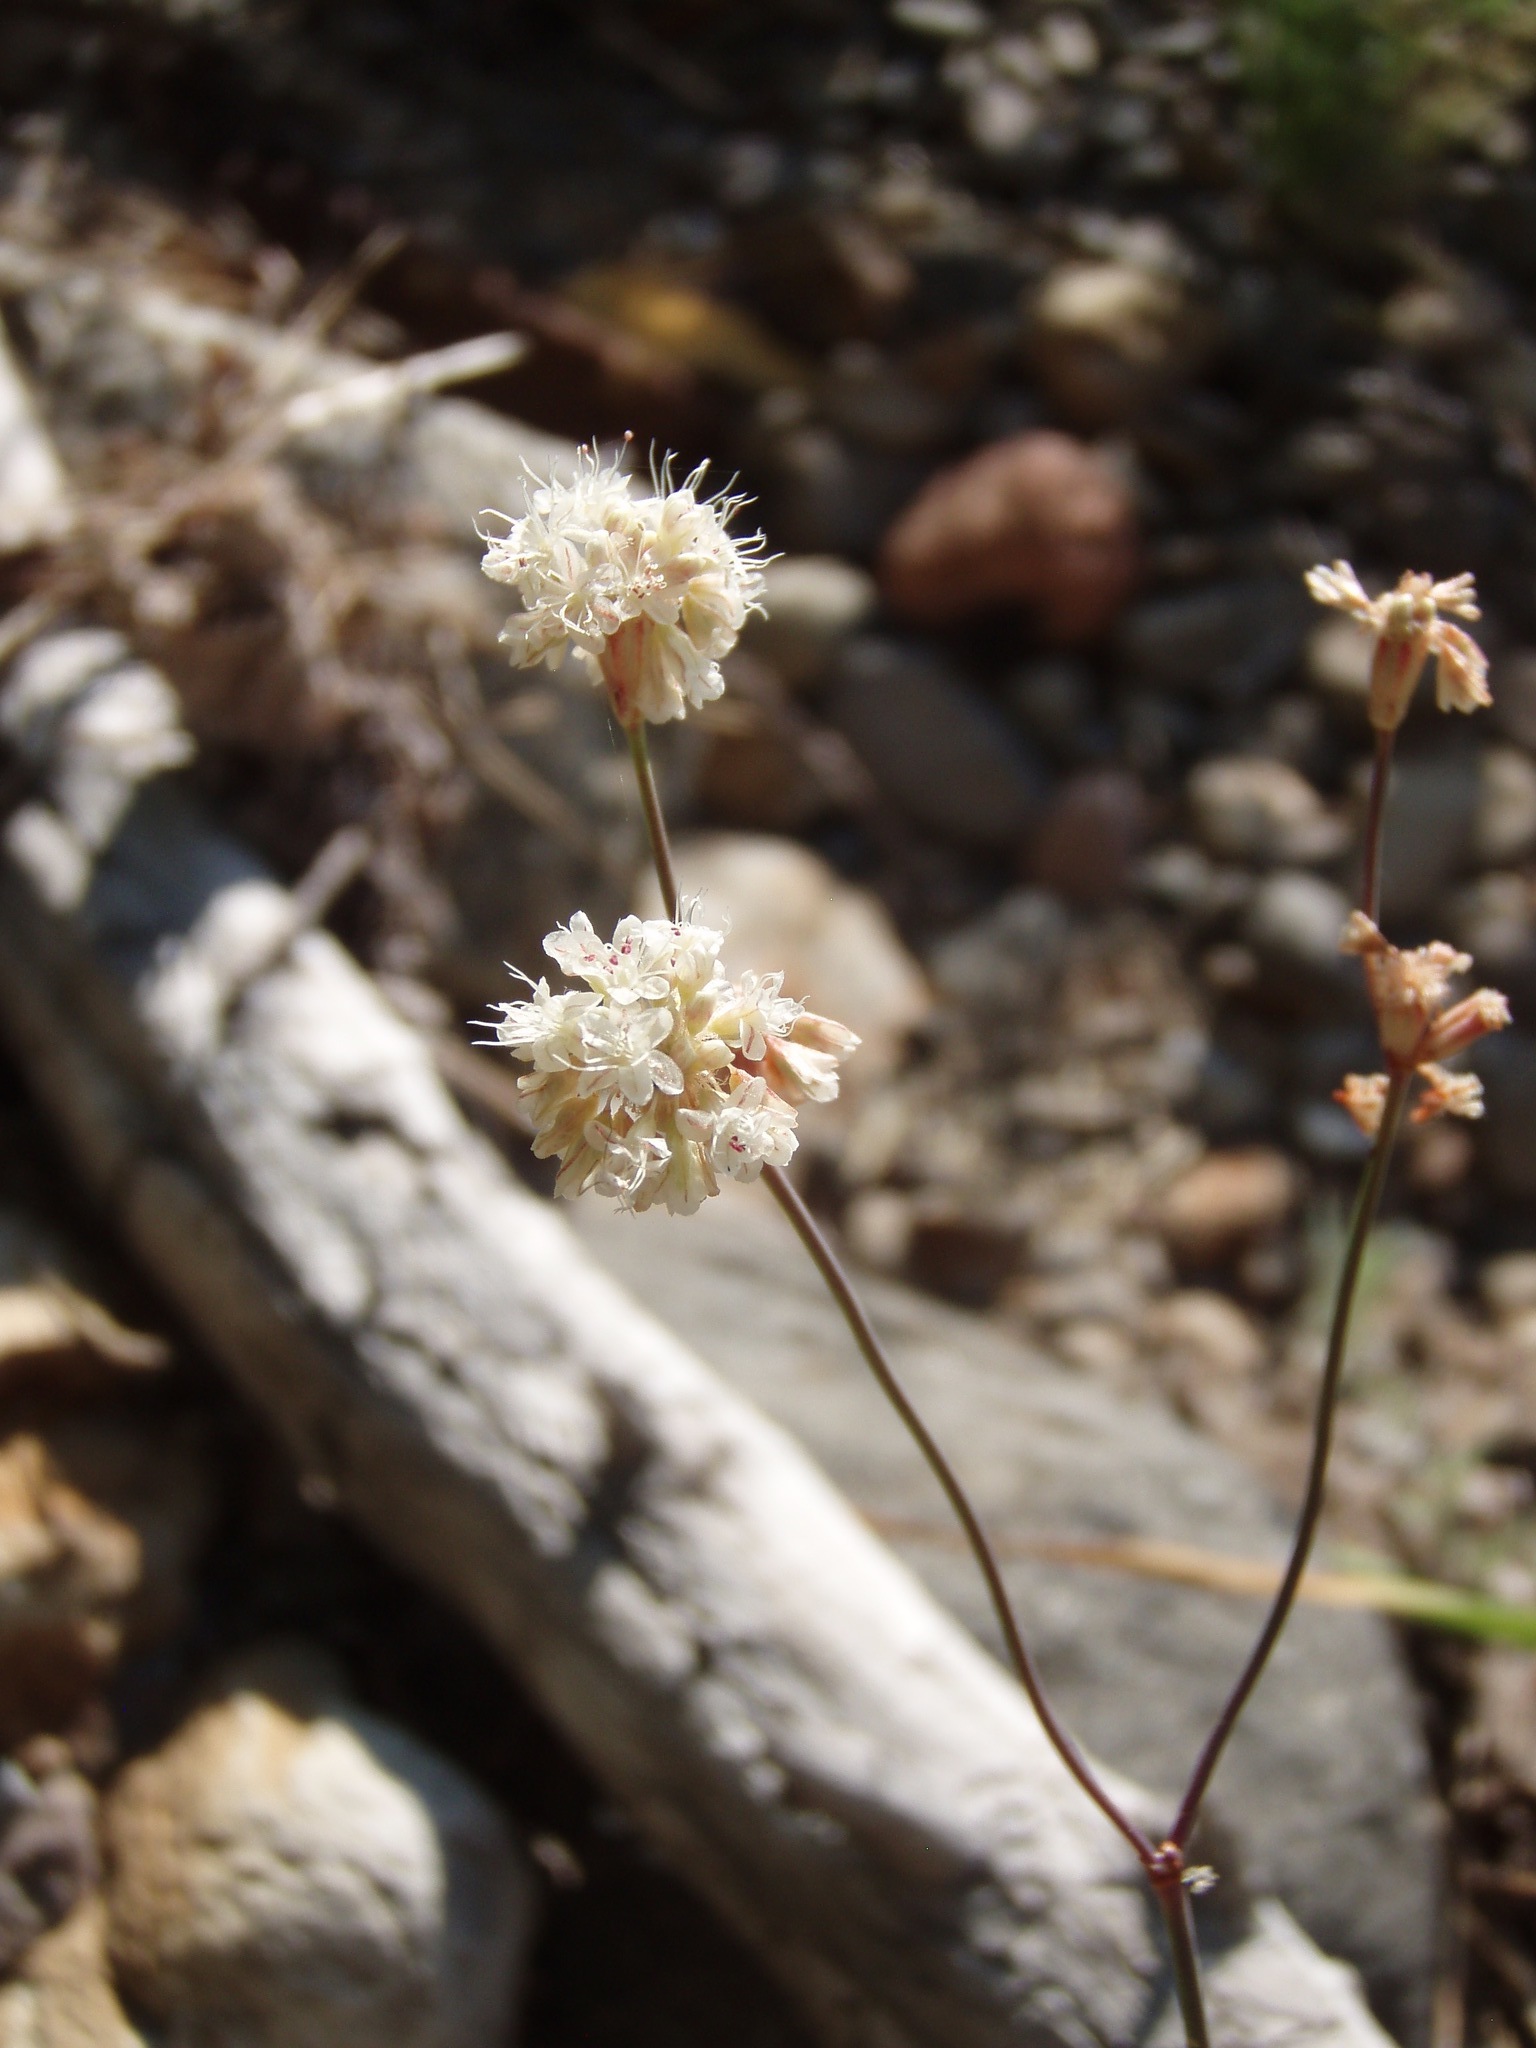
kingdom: Plantae
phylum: Tracheophyta
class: Magnoliopsida
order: Caryophyllales
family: Polygonaceae
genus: Eriogonum
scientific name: Eriogonum nudum
